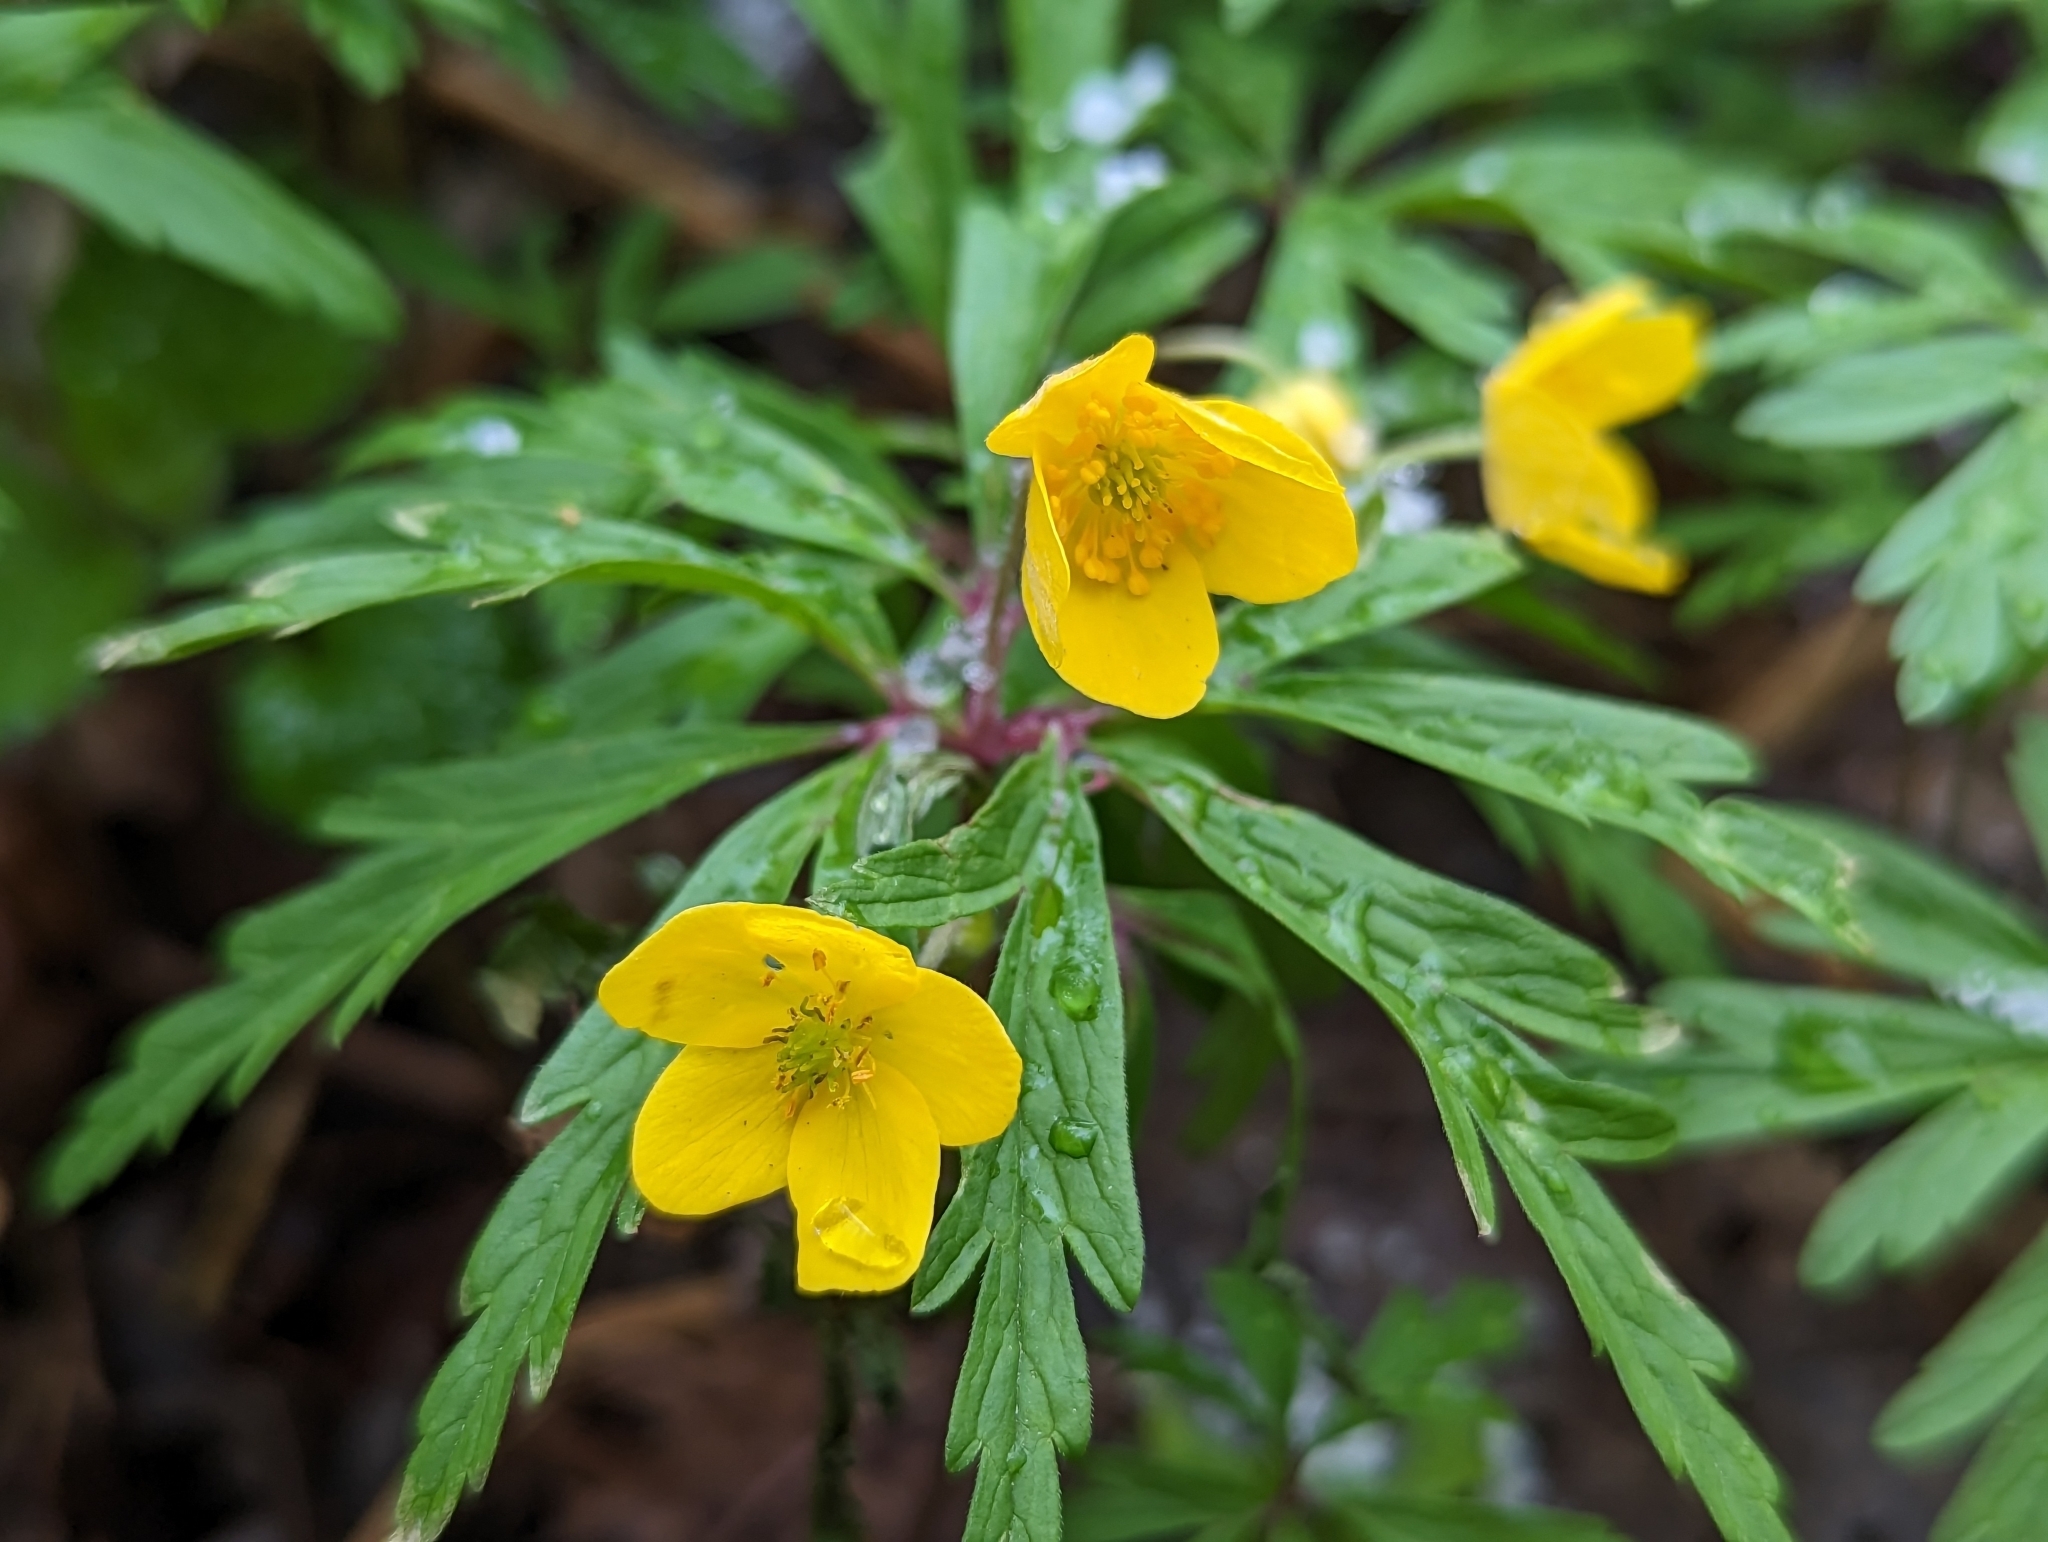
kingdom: Plantae
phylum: Tracheophyta
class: Magnoliopsida
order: Ranunculales
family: Ranunculaceae
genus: Anemone
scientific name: Anemone ranunculoides
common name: Yellow anemone
